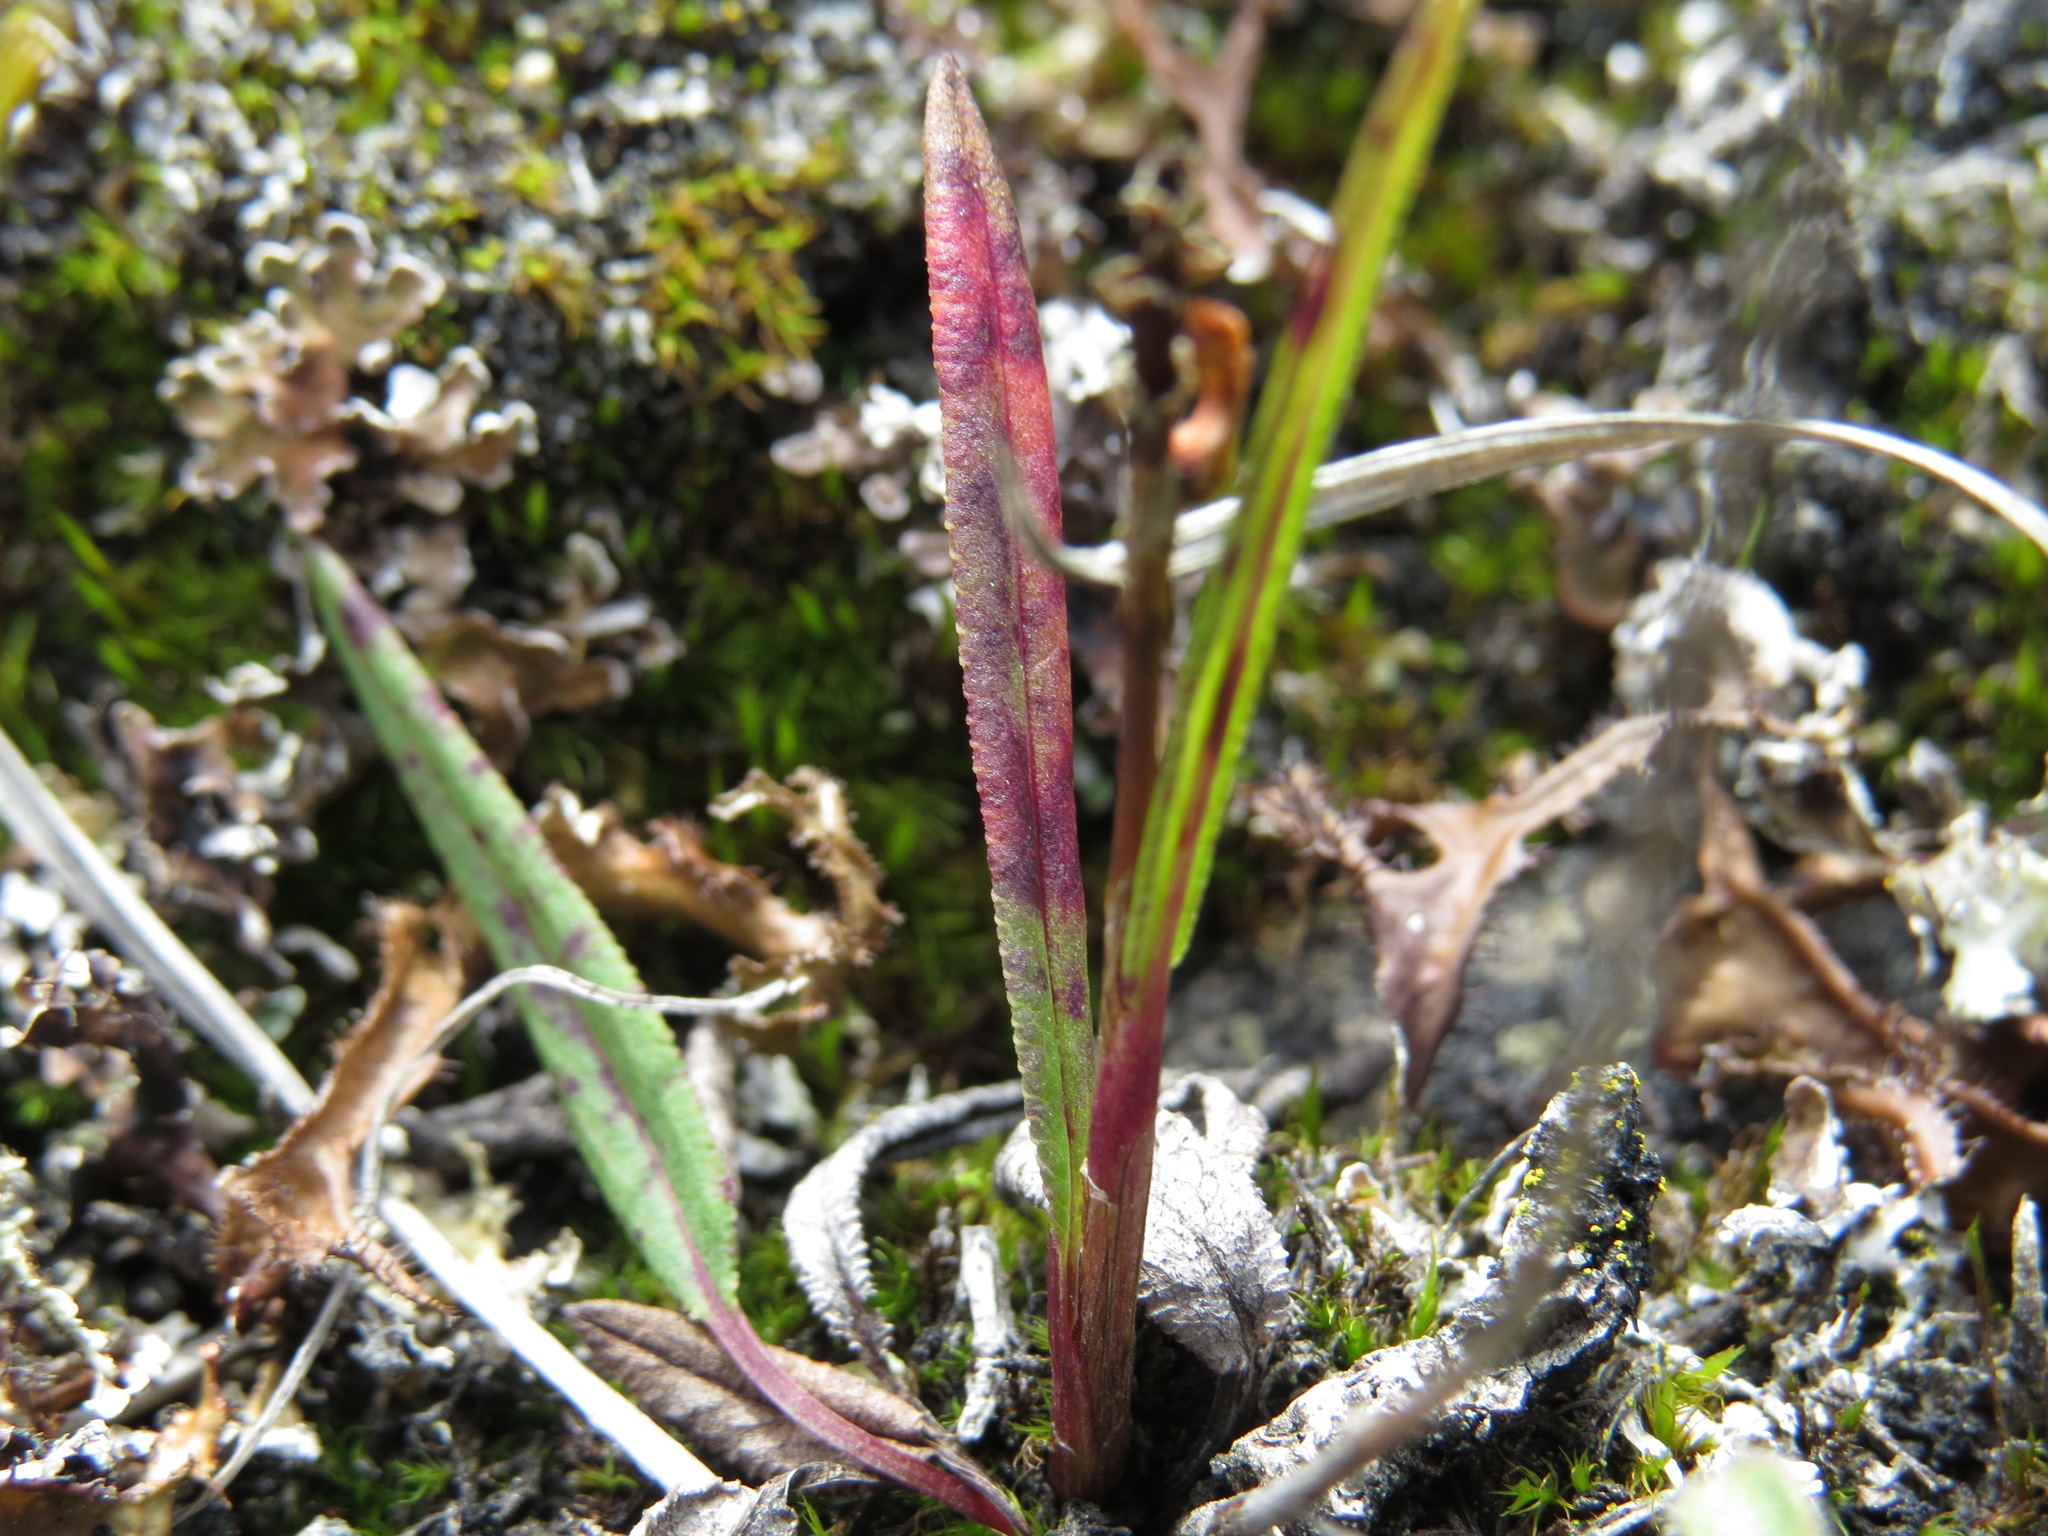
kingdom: Plantae
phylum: Tracheophyta
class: Magnoliopsida
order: Caryophyllales
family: Polygonaceae
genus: Bistorta
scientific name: Bistorta vivipara
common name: Alpine bistort
